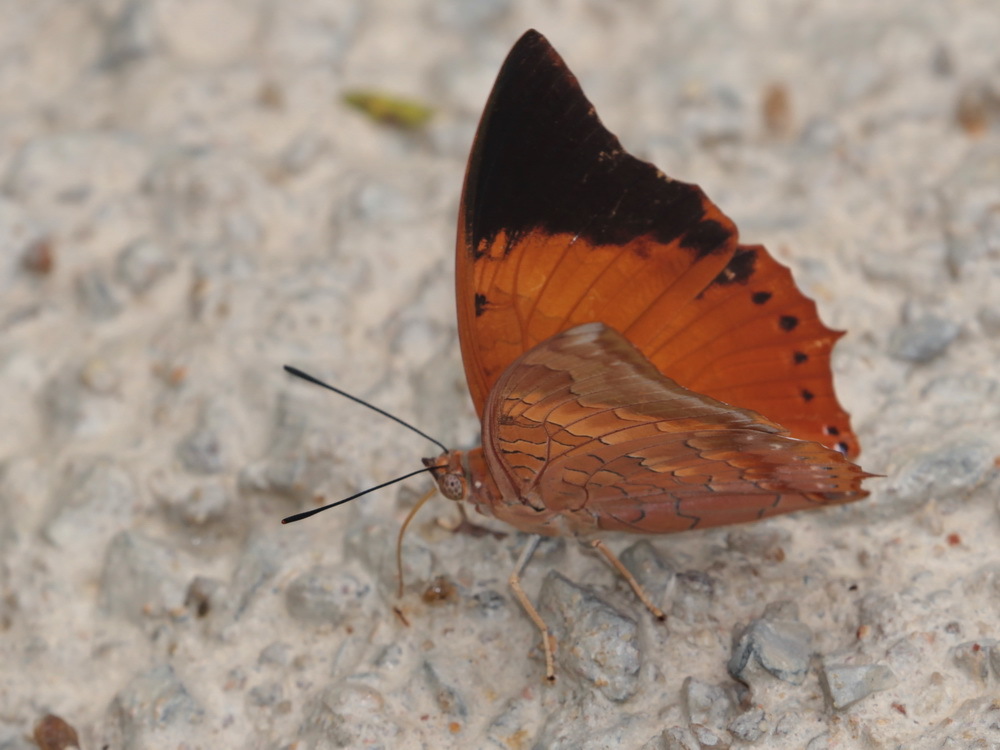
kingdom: Animalia
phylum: Arthropoda
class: Insecta
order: Lepidoptera
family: Nymphalidae
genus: Charaxes
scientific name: Charaxes bernardus
